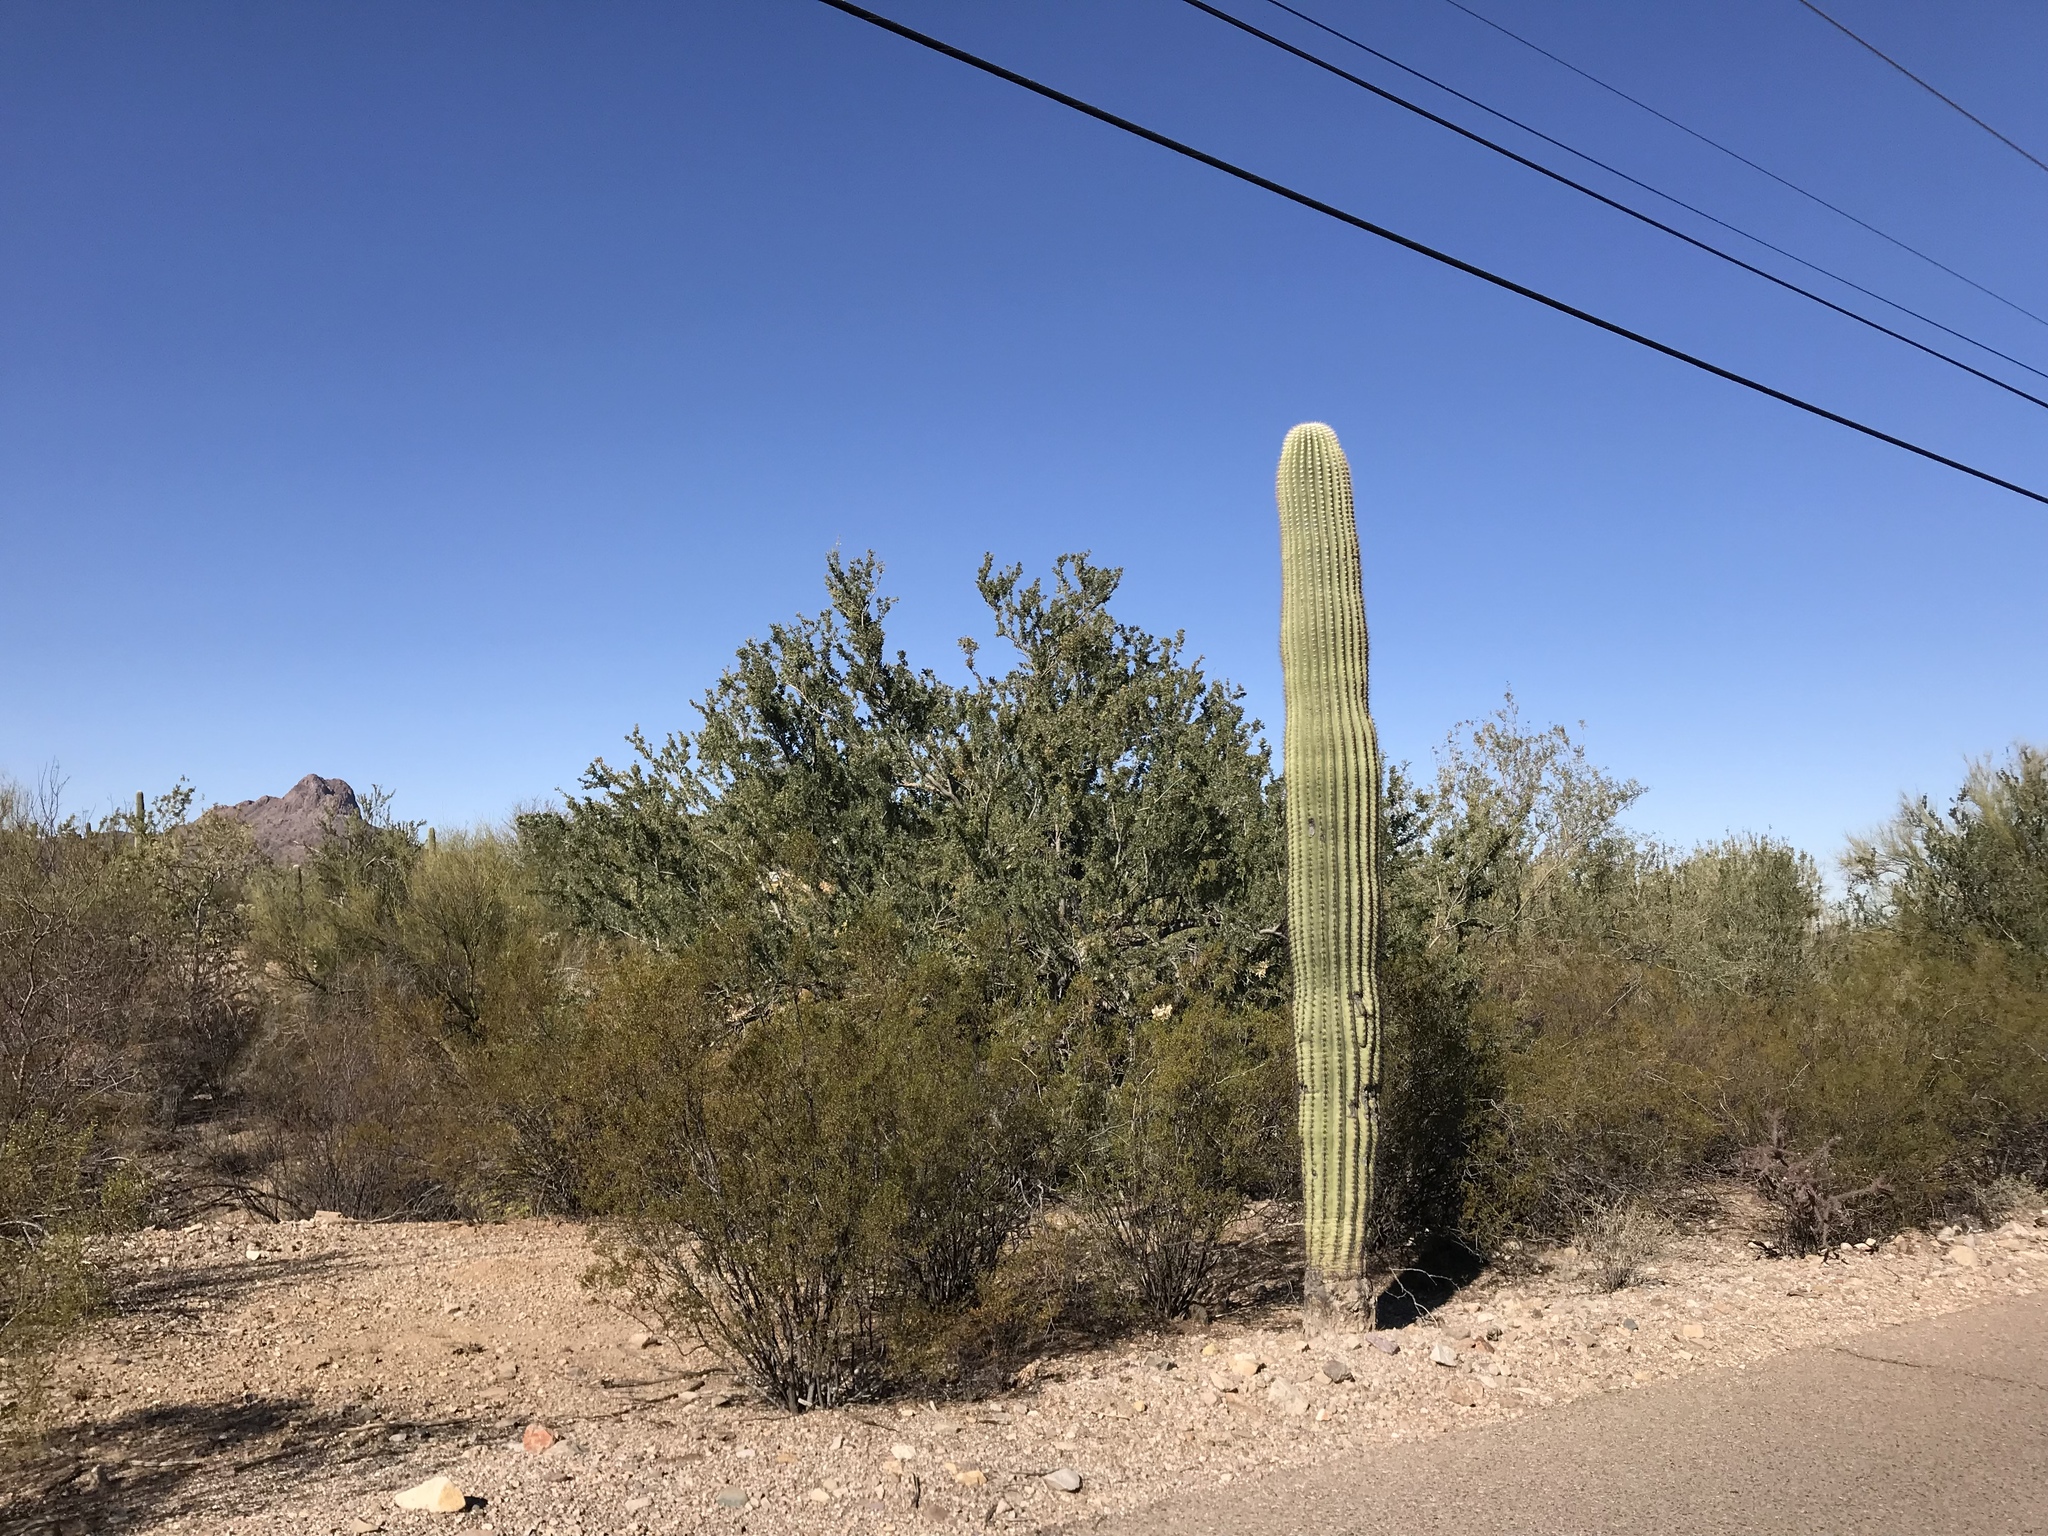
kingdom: Plantae
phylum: Tracheophyta
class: Magnoliopsida
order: Caryophyllales
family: Cactaceae
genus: Carnegiea
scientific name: Carnegiea gigantea
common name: Saguaro
